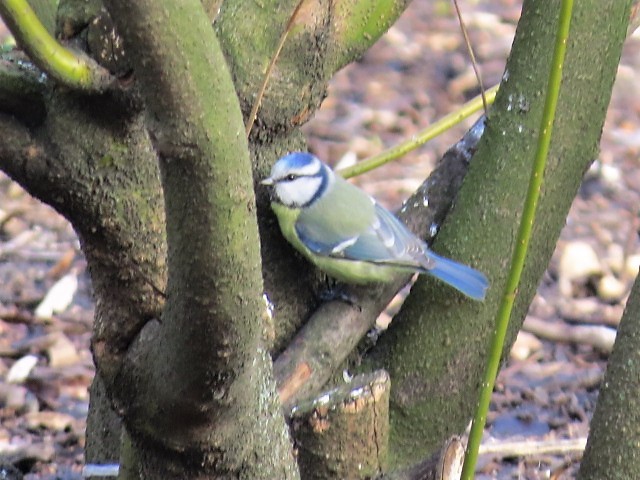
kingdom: Animalia
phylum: Chordata
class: Aves
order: Passeriformes
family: Paridae
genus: Cyanistes
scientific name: Cyanistes caeruleus
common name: Eurasian blue tit
